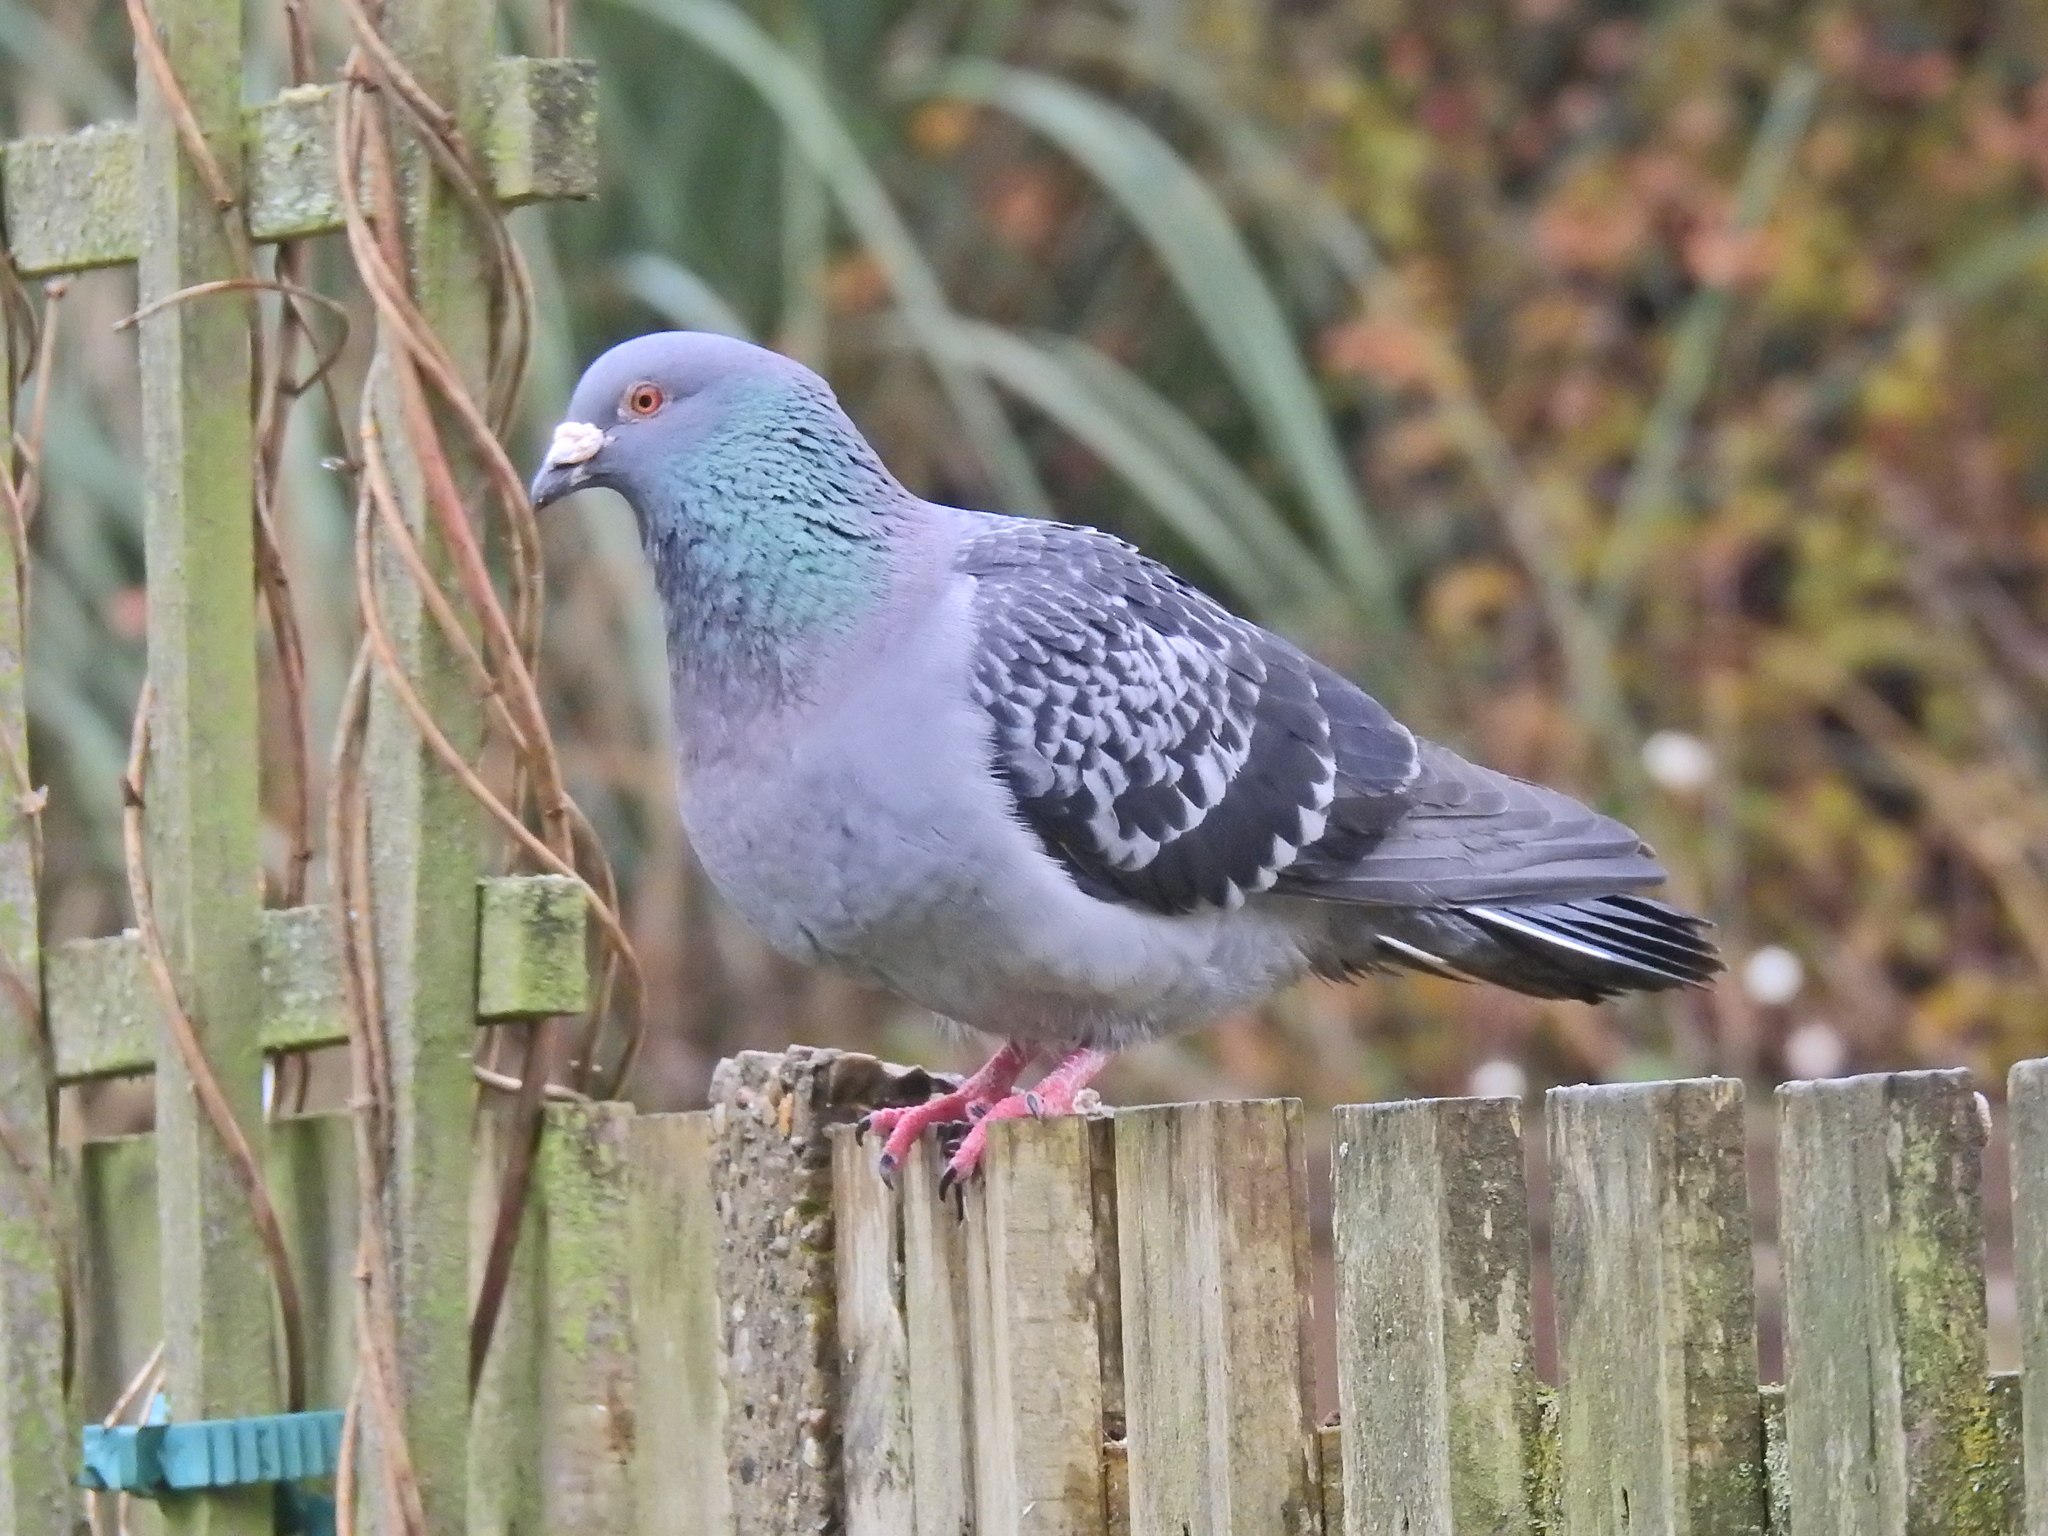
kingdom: Animalia
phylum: Chordata
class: Aves
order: Columbiformes
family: Columbidae
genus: Columba
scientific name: Columba livia
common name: Rock pigeon
